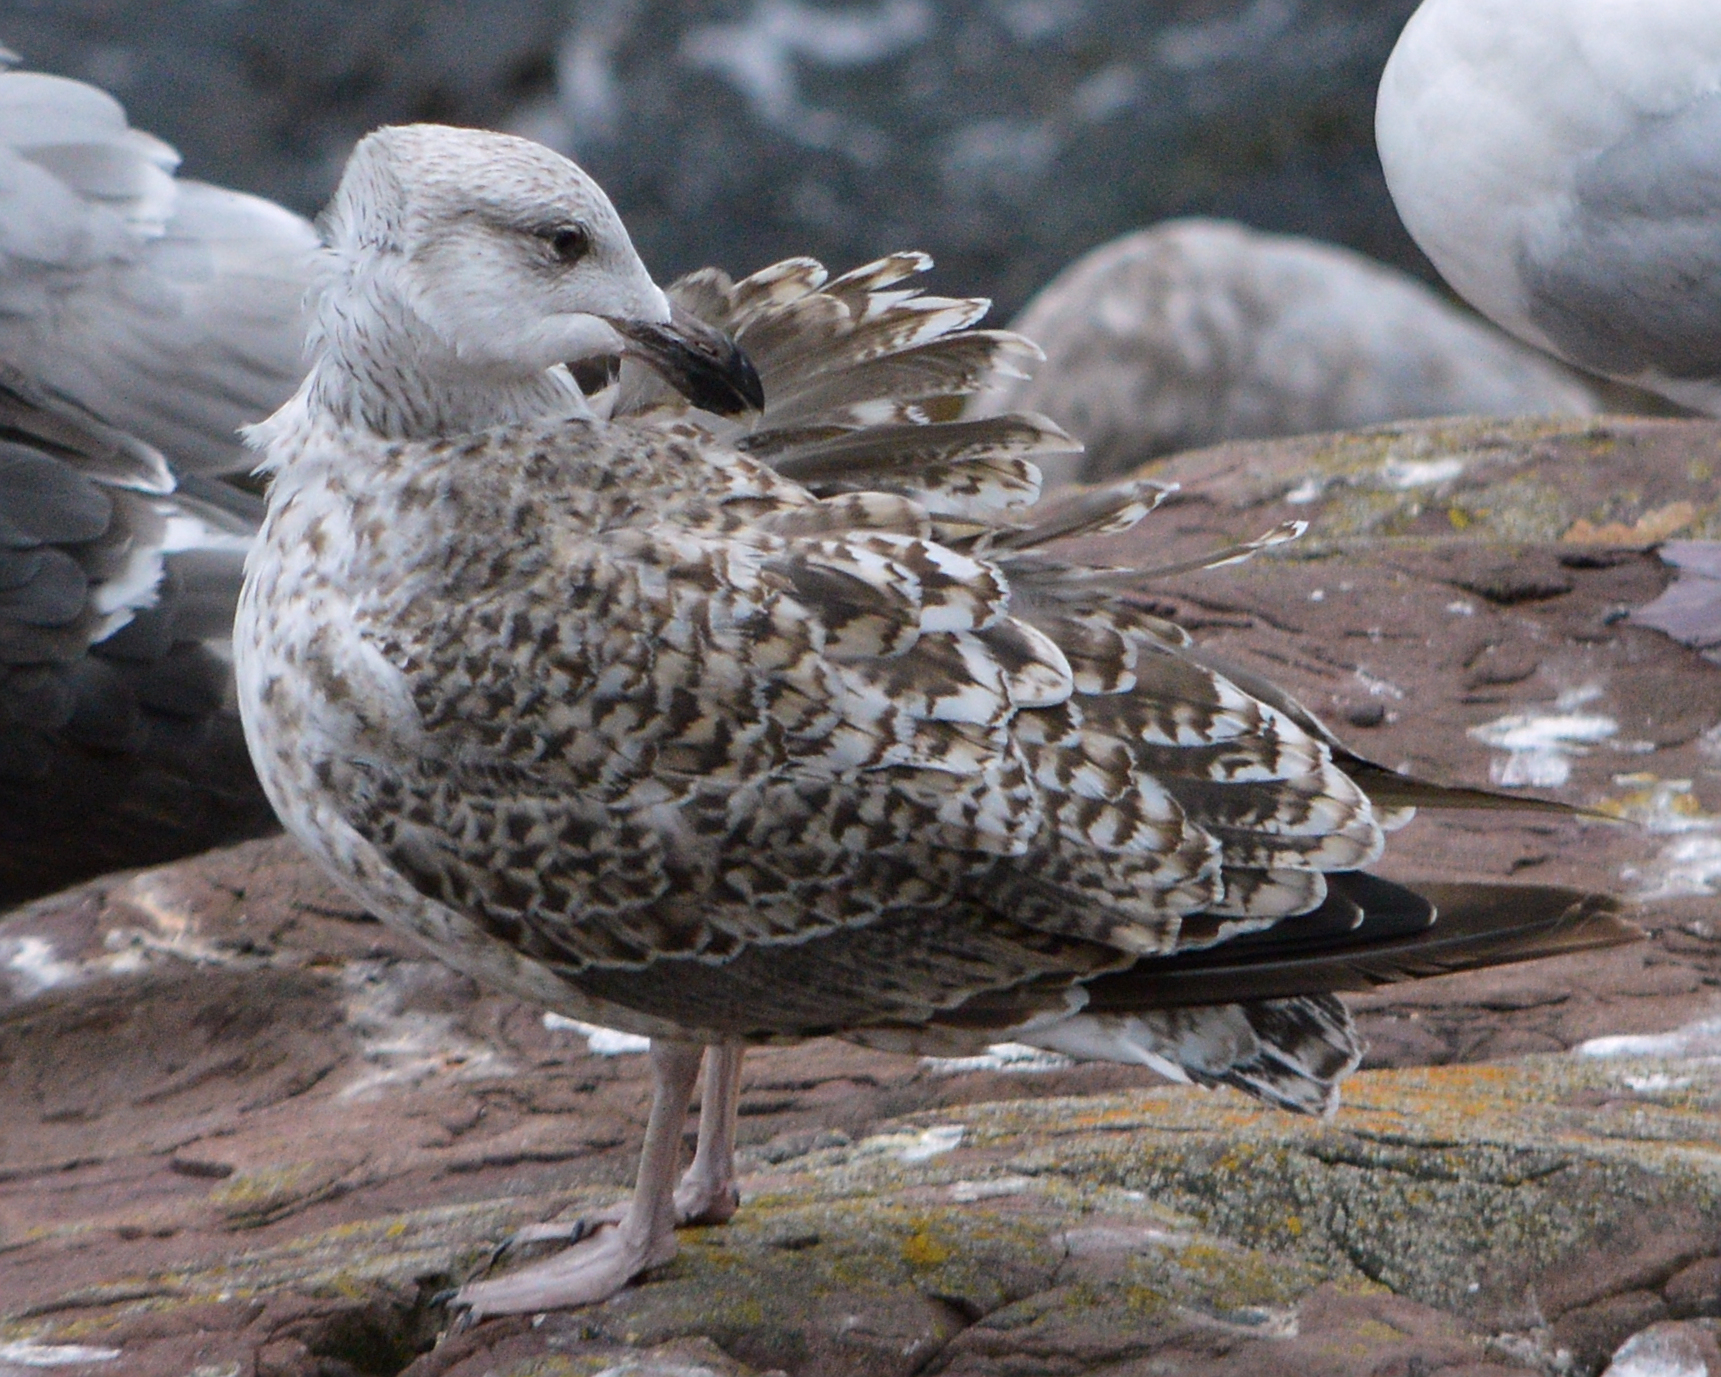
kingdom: Animalia
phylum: Chordata
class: Aves
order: Charadriiformes
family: Laridae
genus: Larus
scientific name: Larus marinus
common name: Great black-backed gull
